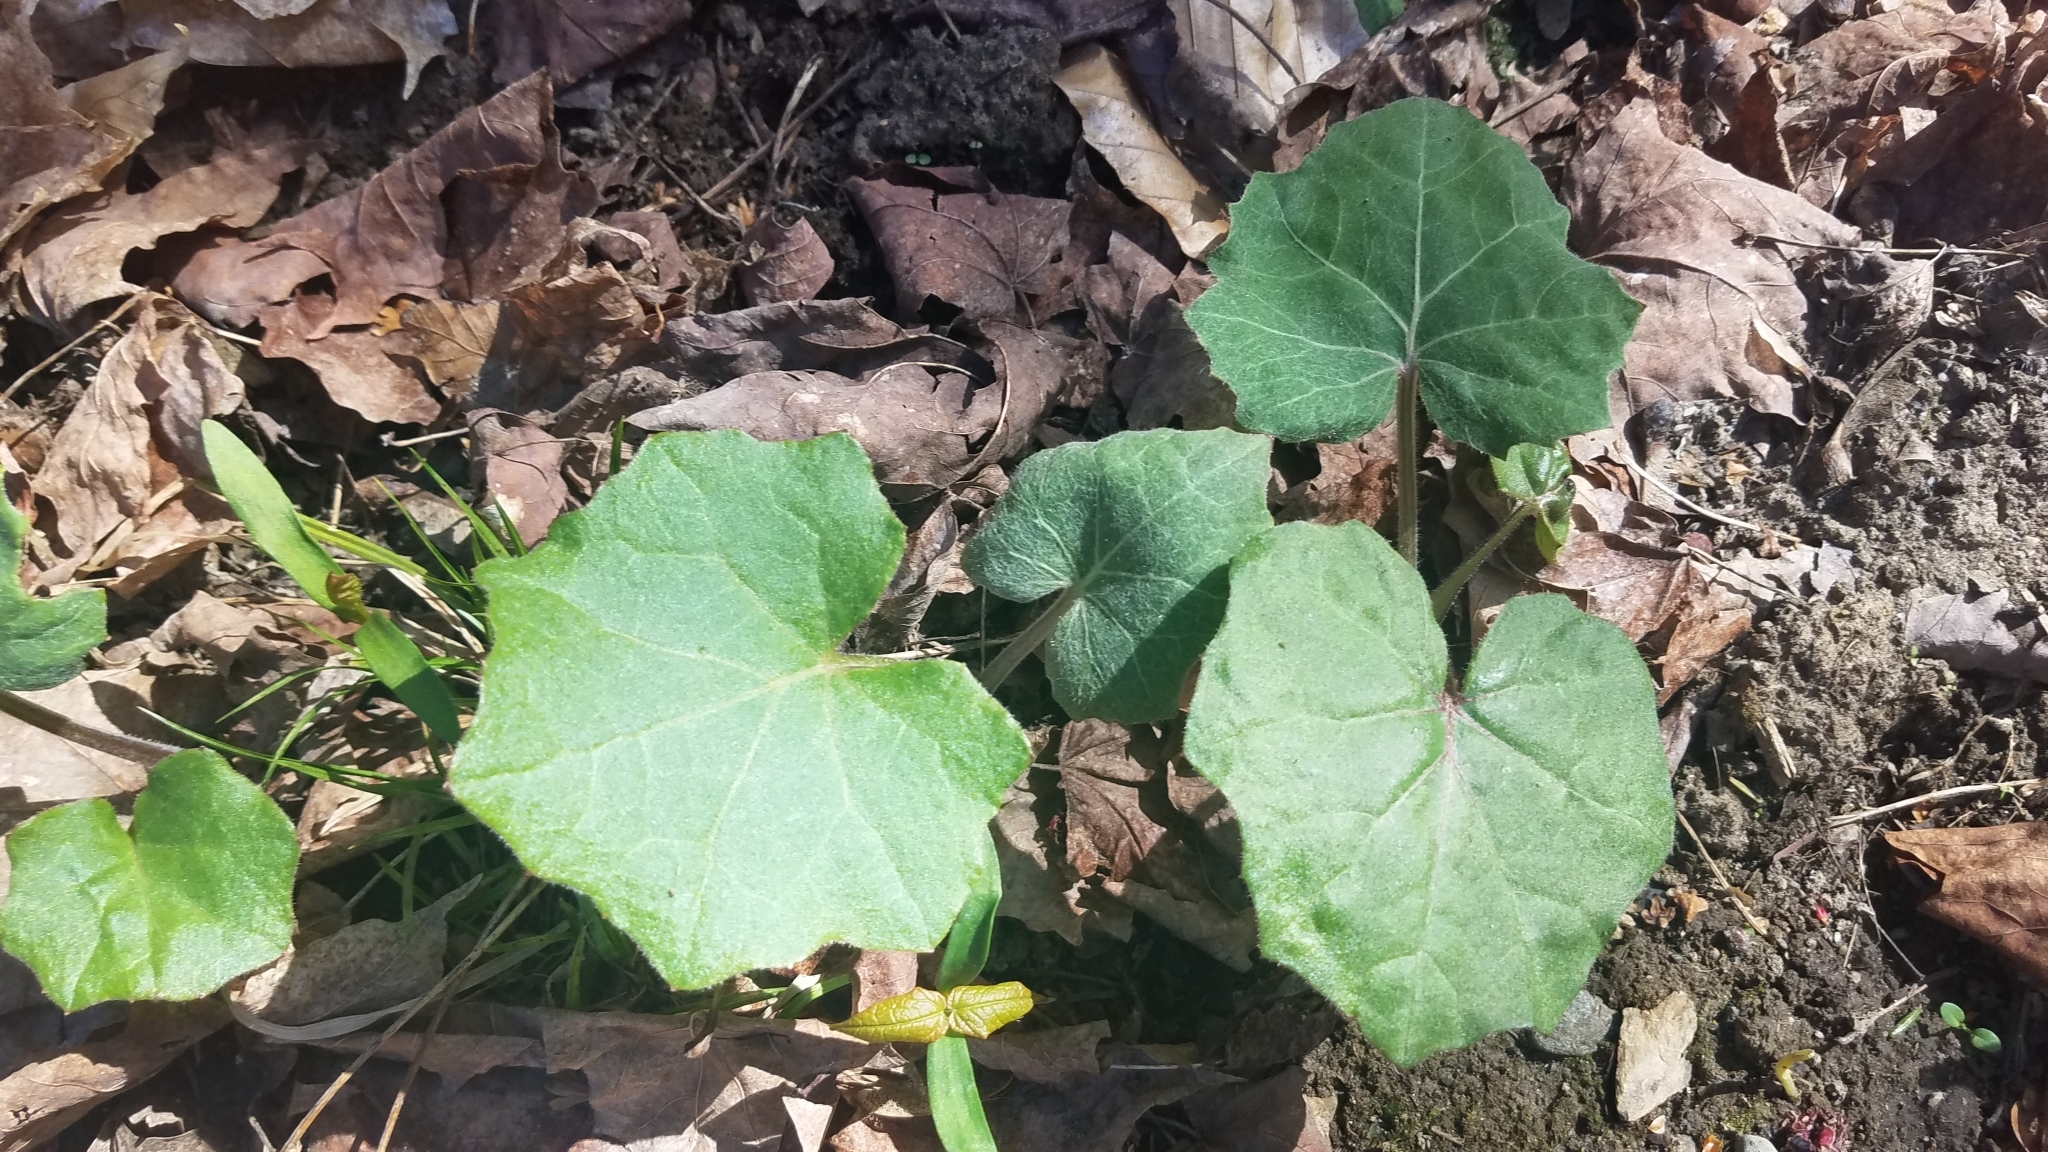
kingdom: Plantae
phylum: Tracheophyta
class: Magnoliopsida
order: Asterales
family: Asteraceae
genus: Tussilago
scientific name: Tussilago farfara
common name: Coltsfoot
